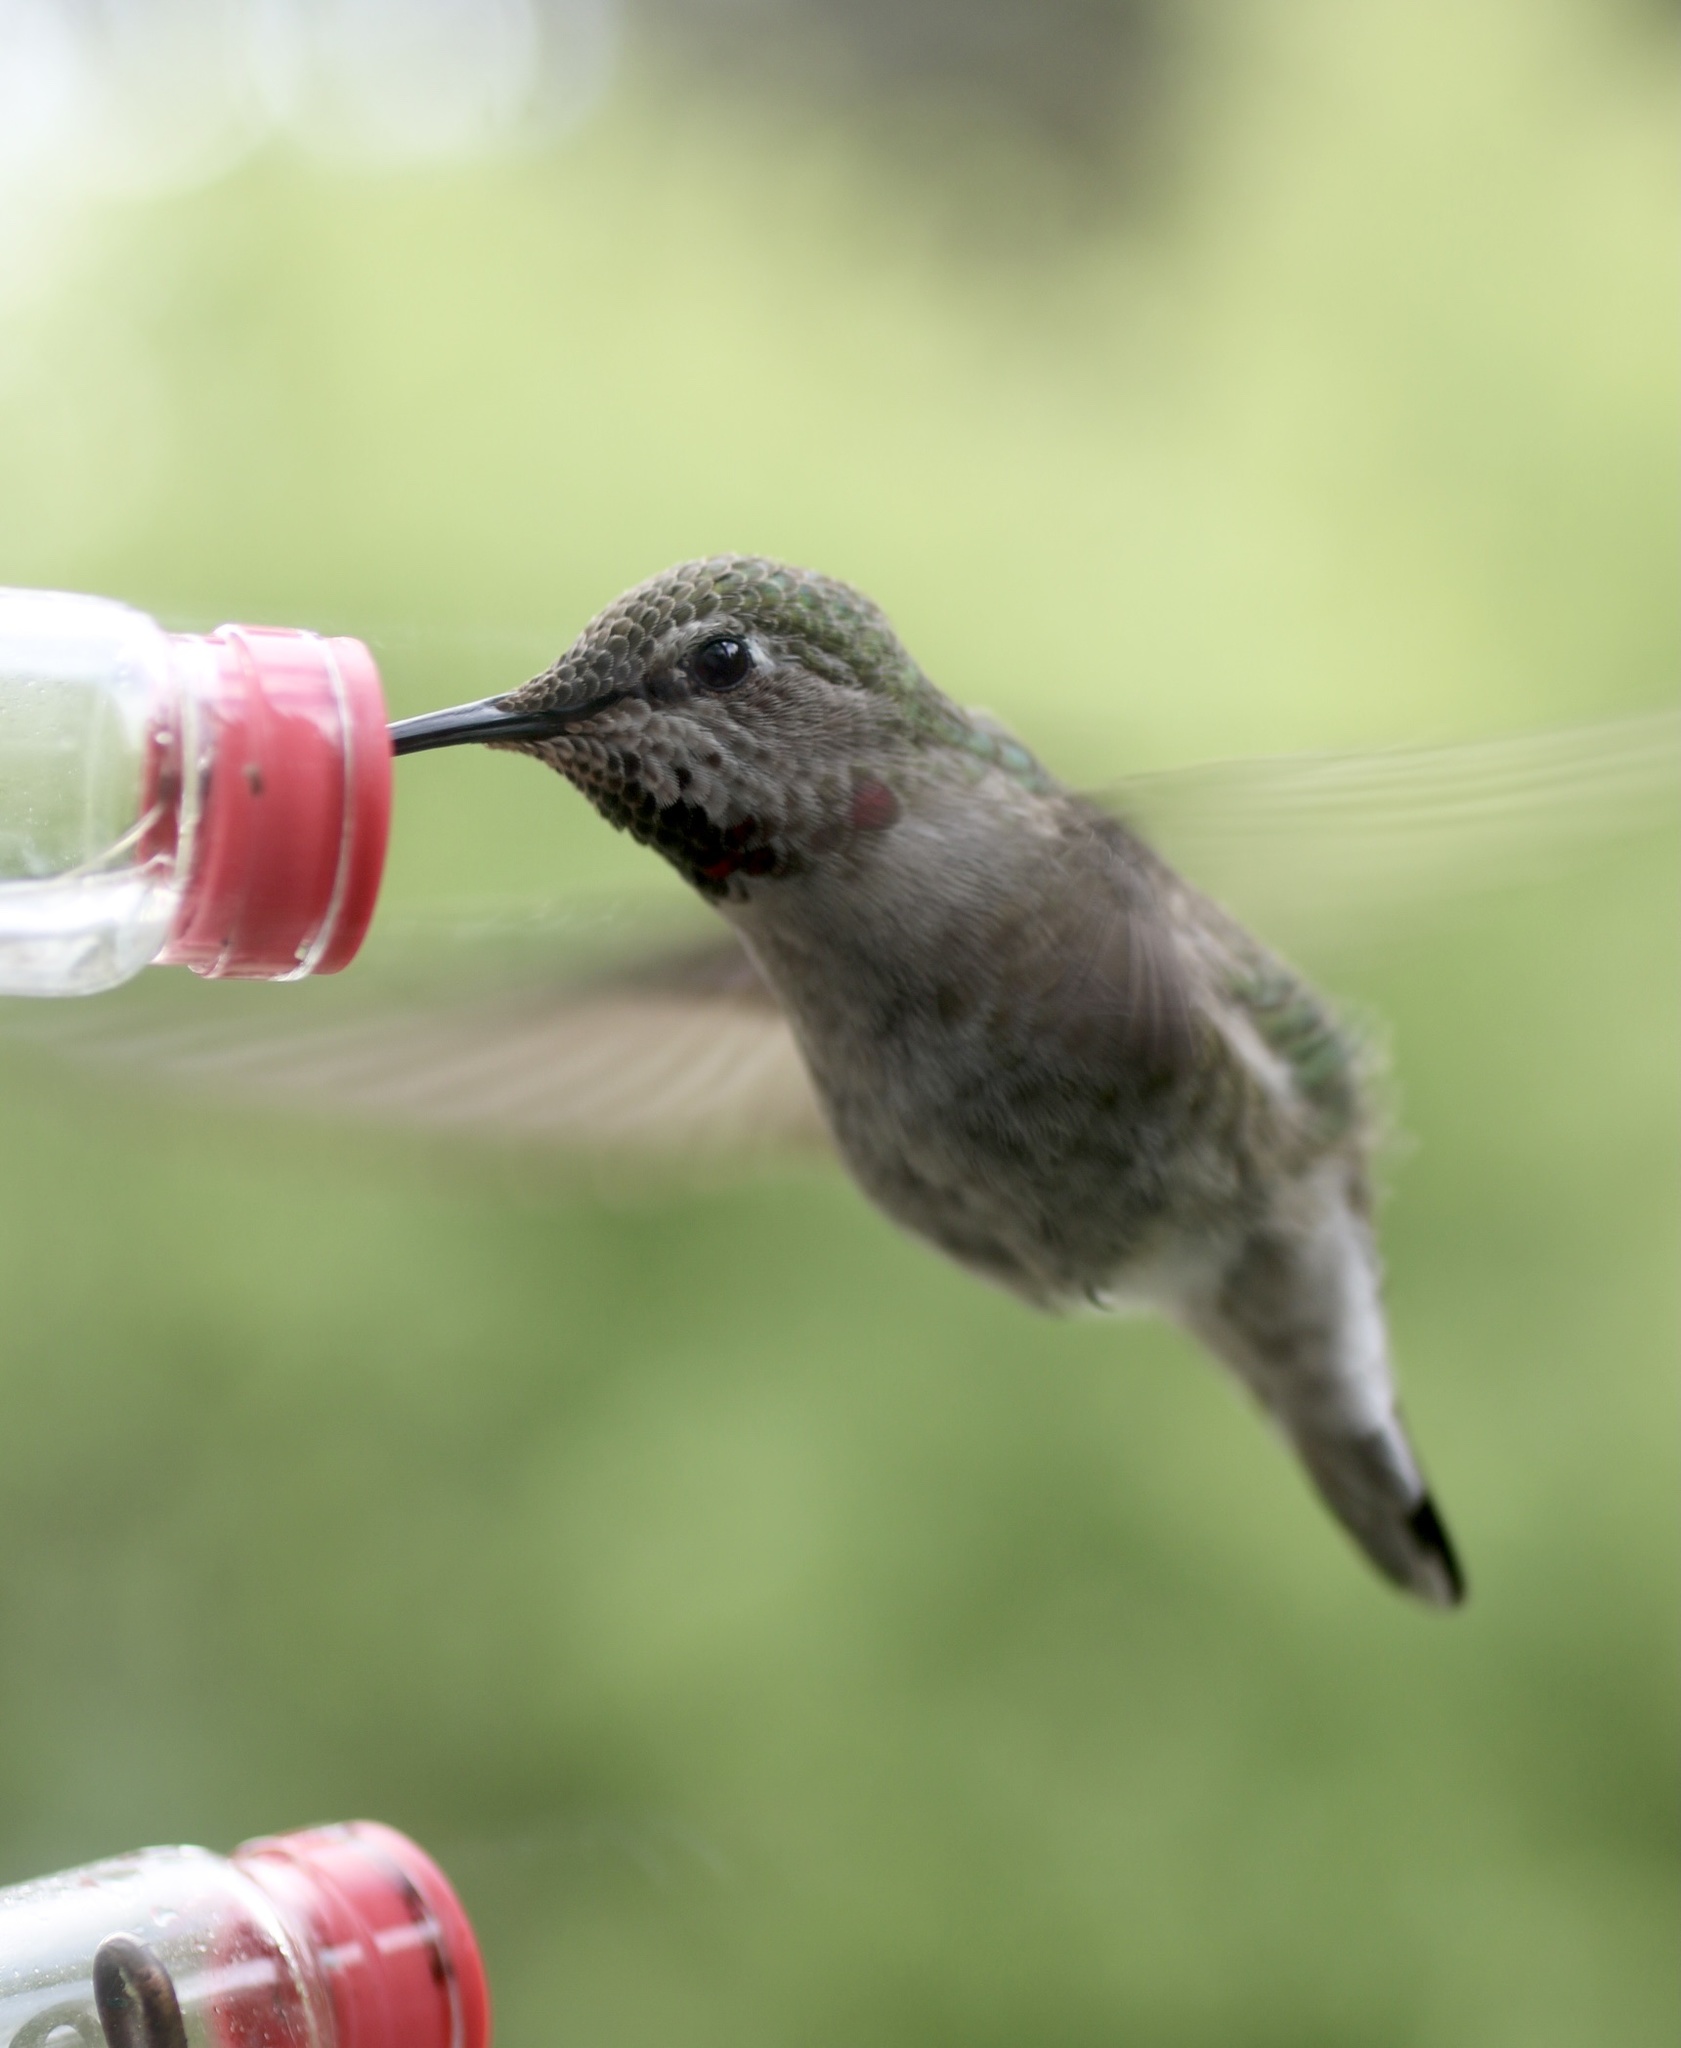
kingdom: Animalia
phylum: Chordata
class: Aves
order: Apodiformes
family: Trochilidae
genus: Calypte
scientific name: Calypte anna
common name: Anna's hummingbird
